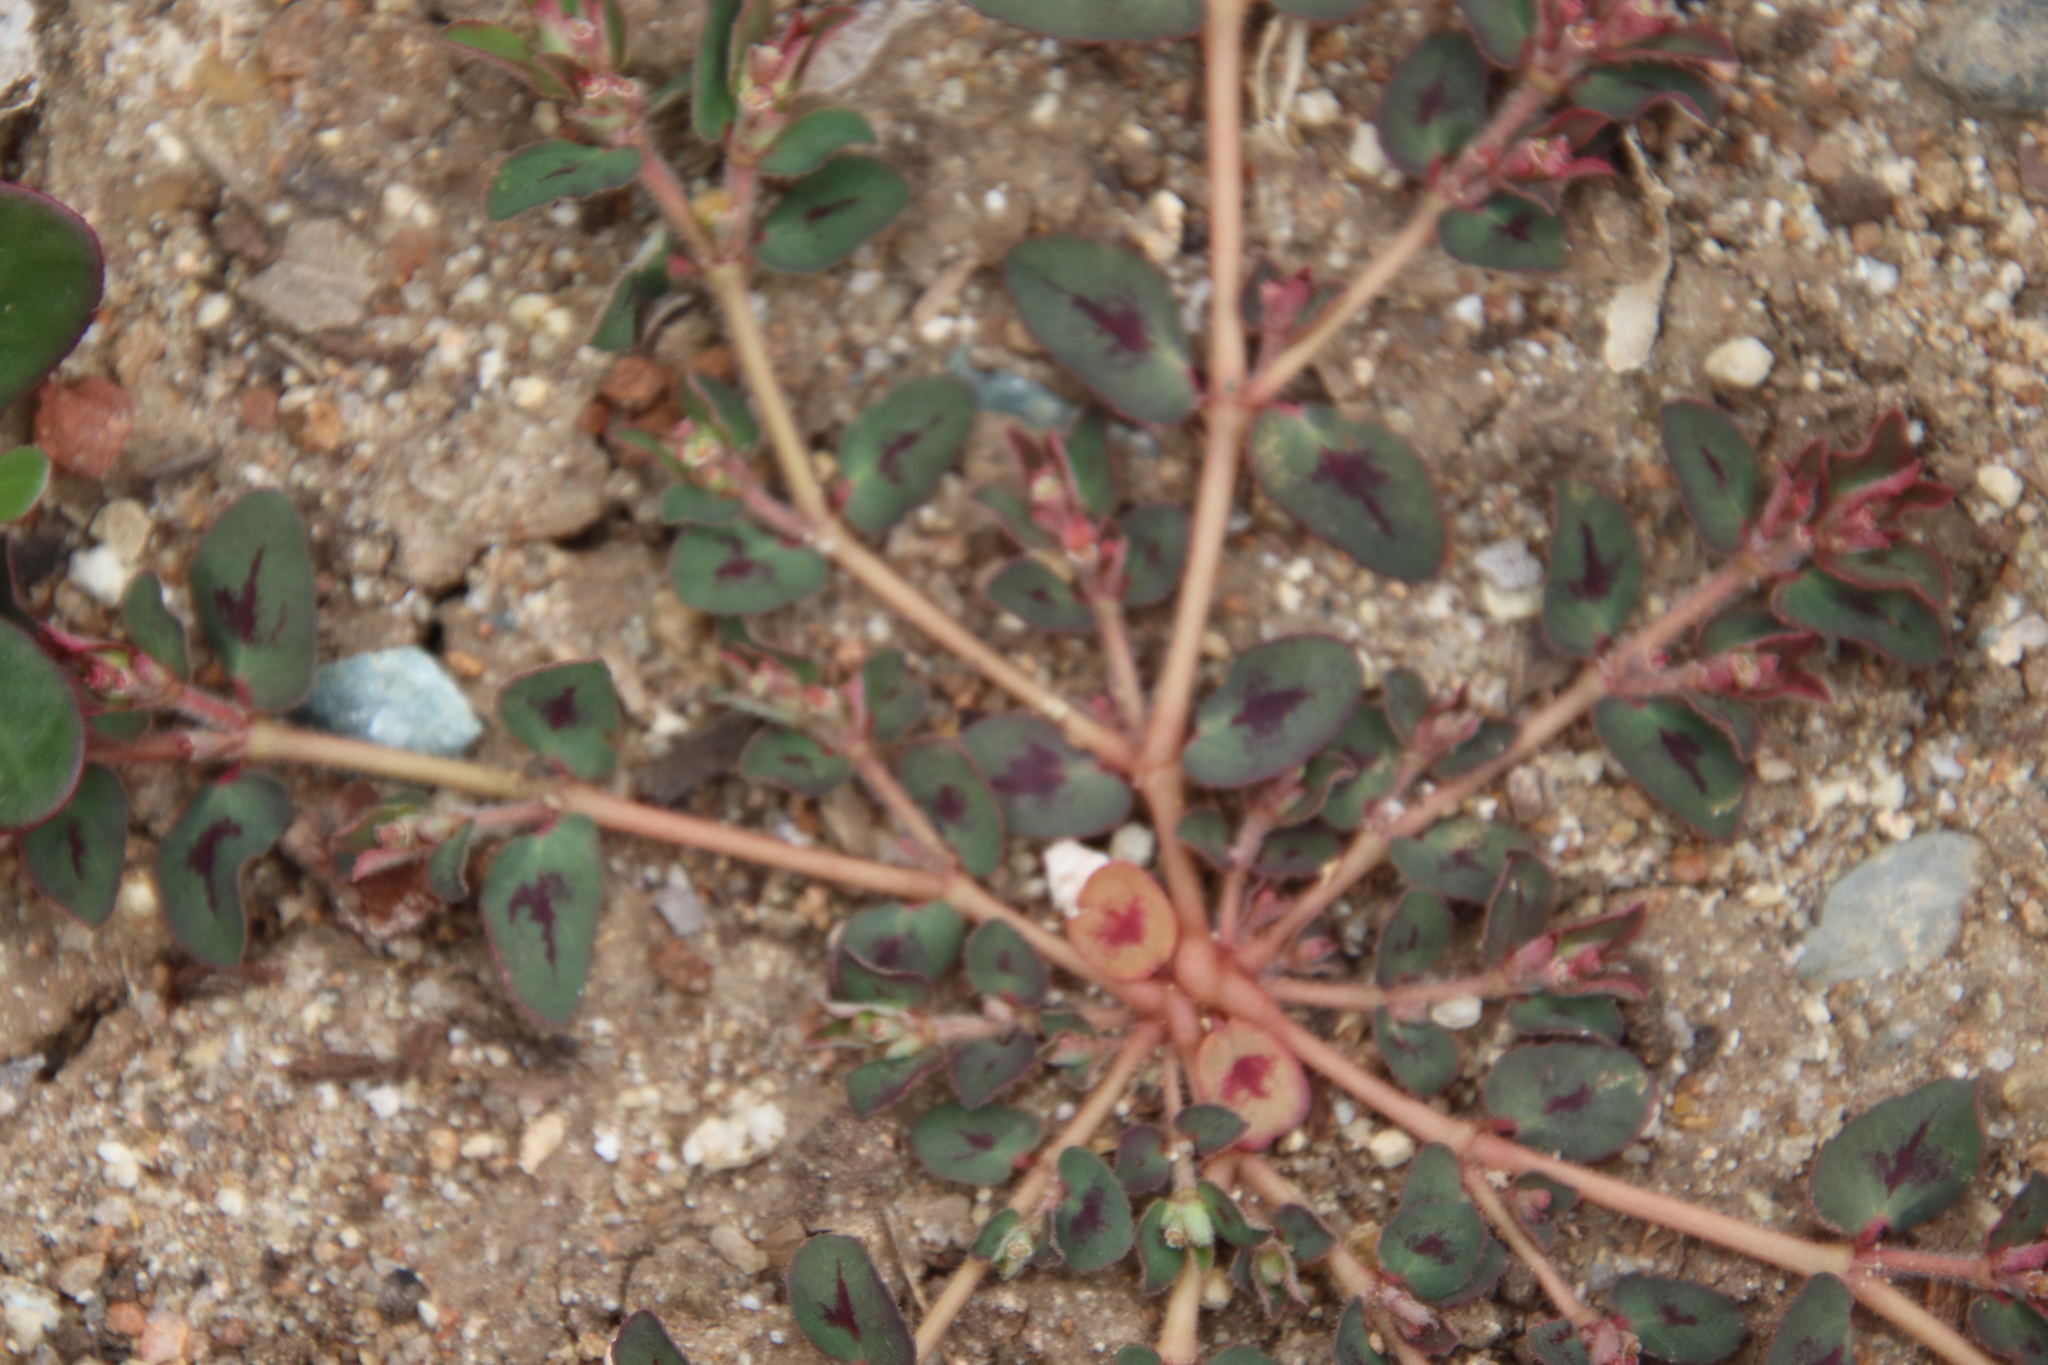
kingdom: Plantae
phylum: Tracheophyta
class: Magnoliopsida
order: Malpighiales
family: Euphorbiaceae
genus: Euphorbia
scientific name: Euphorbia maculata
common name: Spotted spurge
